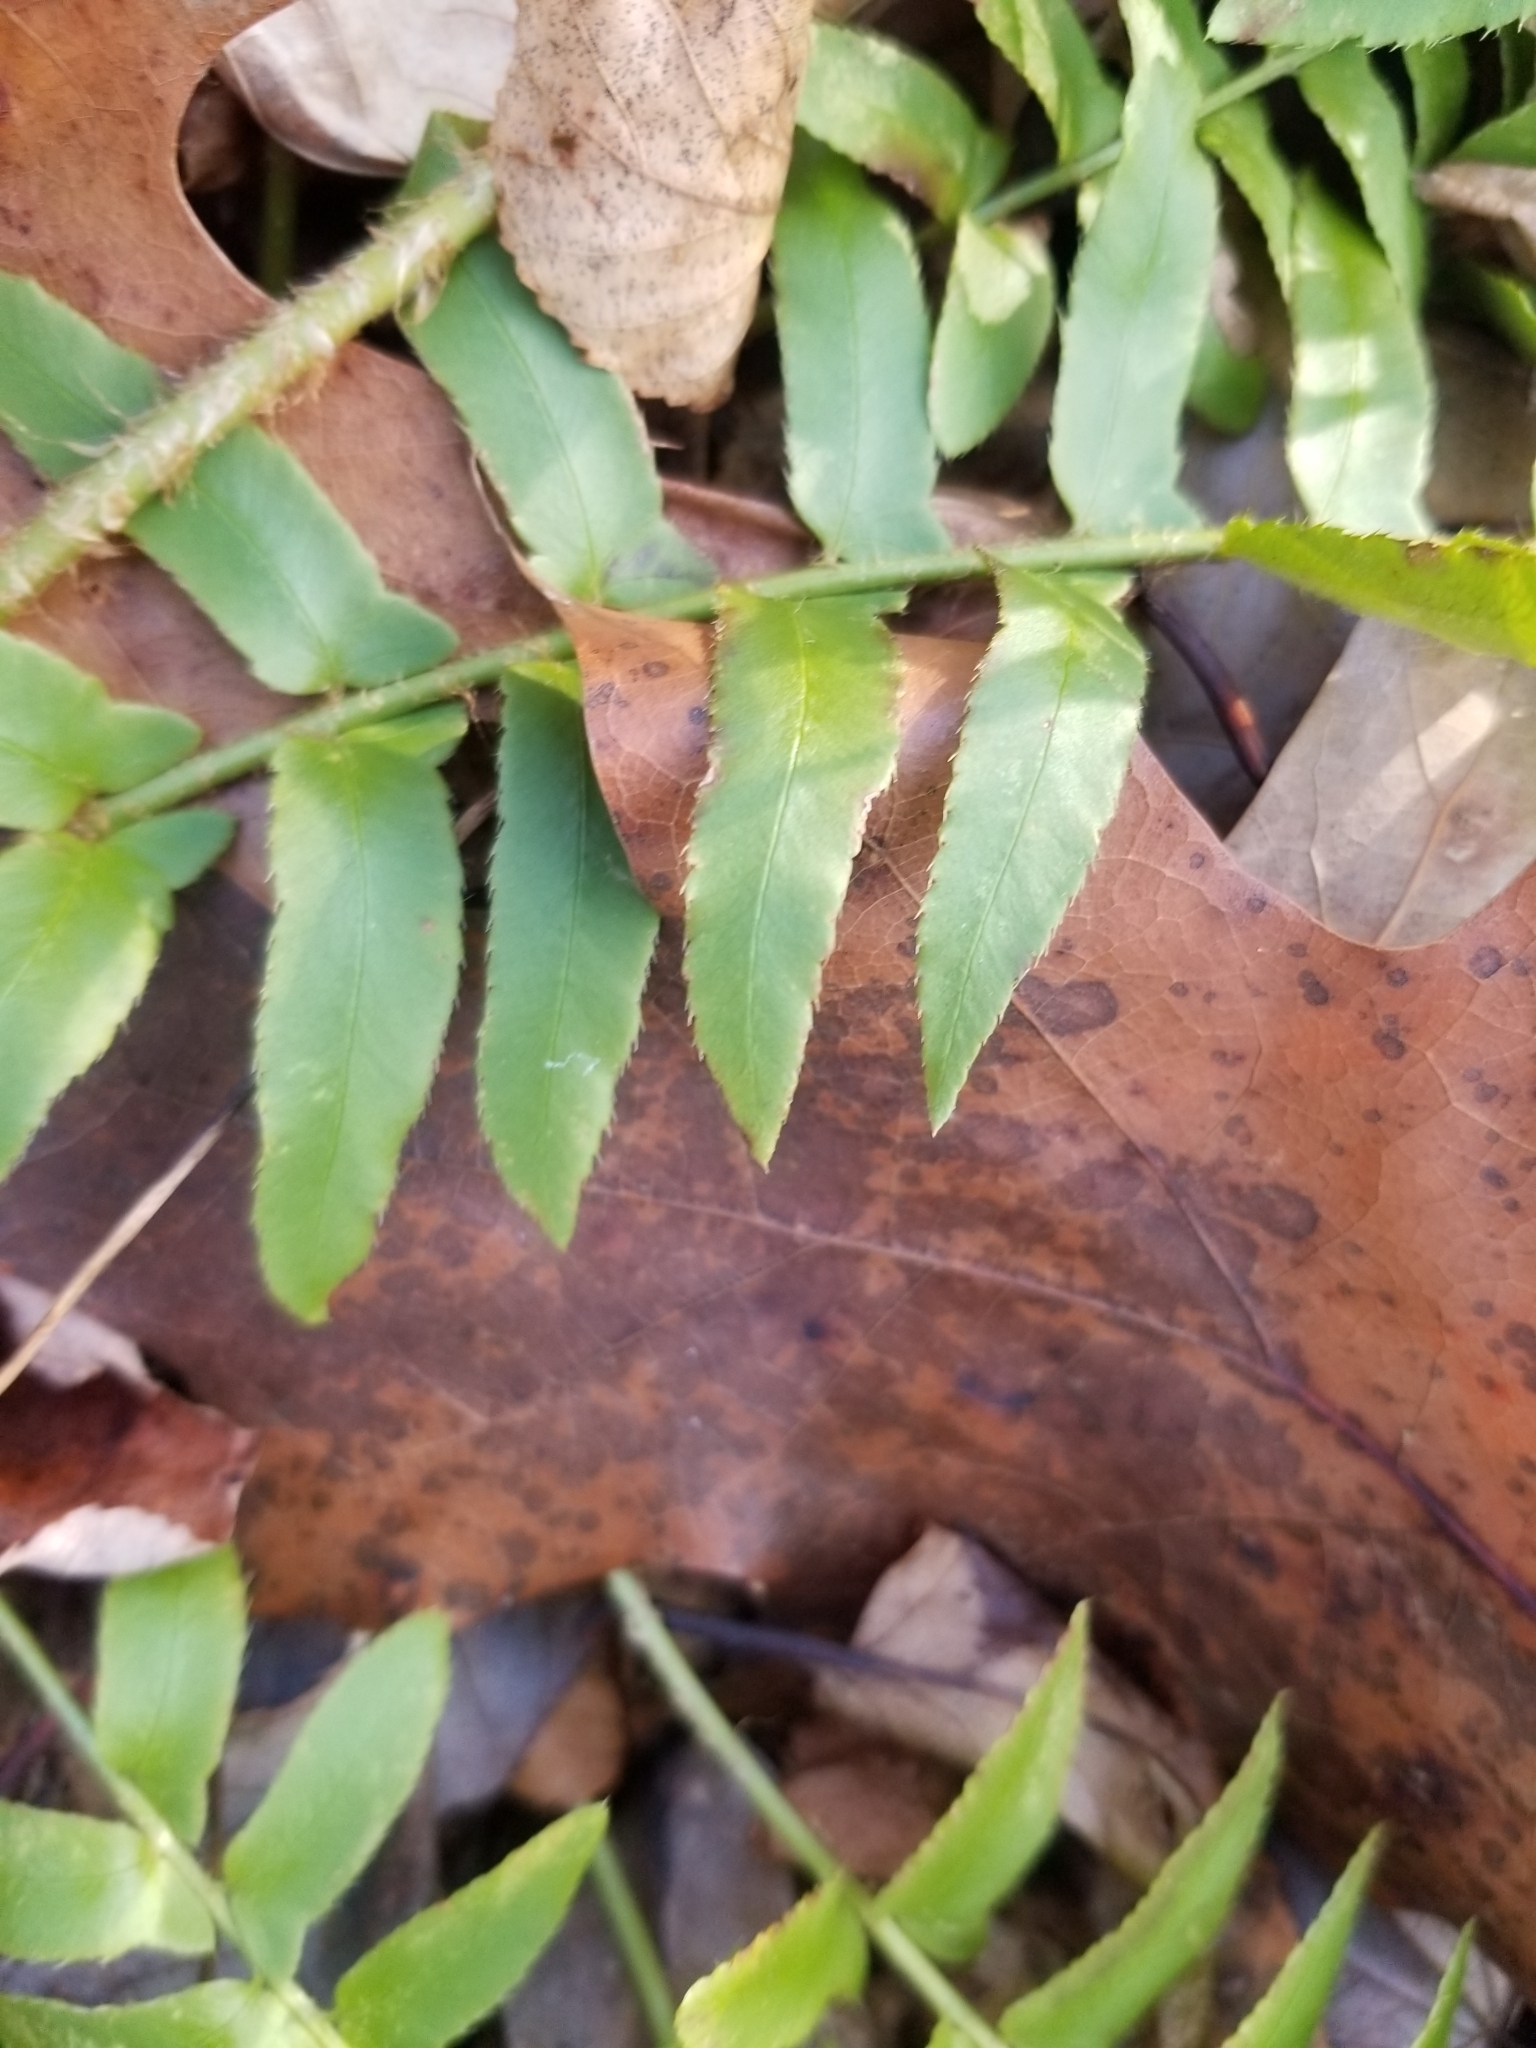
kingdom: Plantae
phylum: Tracheophyta
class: Polypodiopsida
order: Polypodiales
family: Dryopteridaceae
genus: Polystichum
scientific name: Polystichum acrostichoides
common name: Christmas fern
